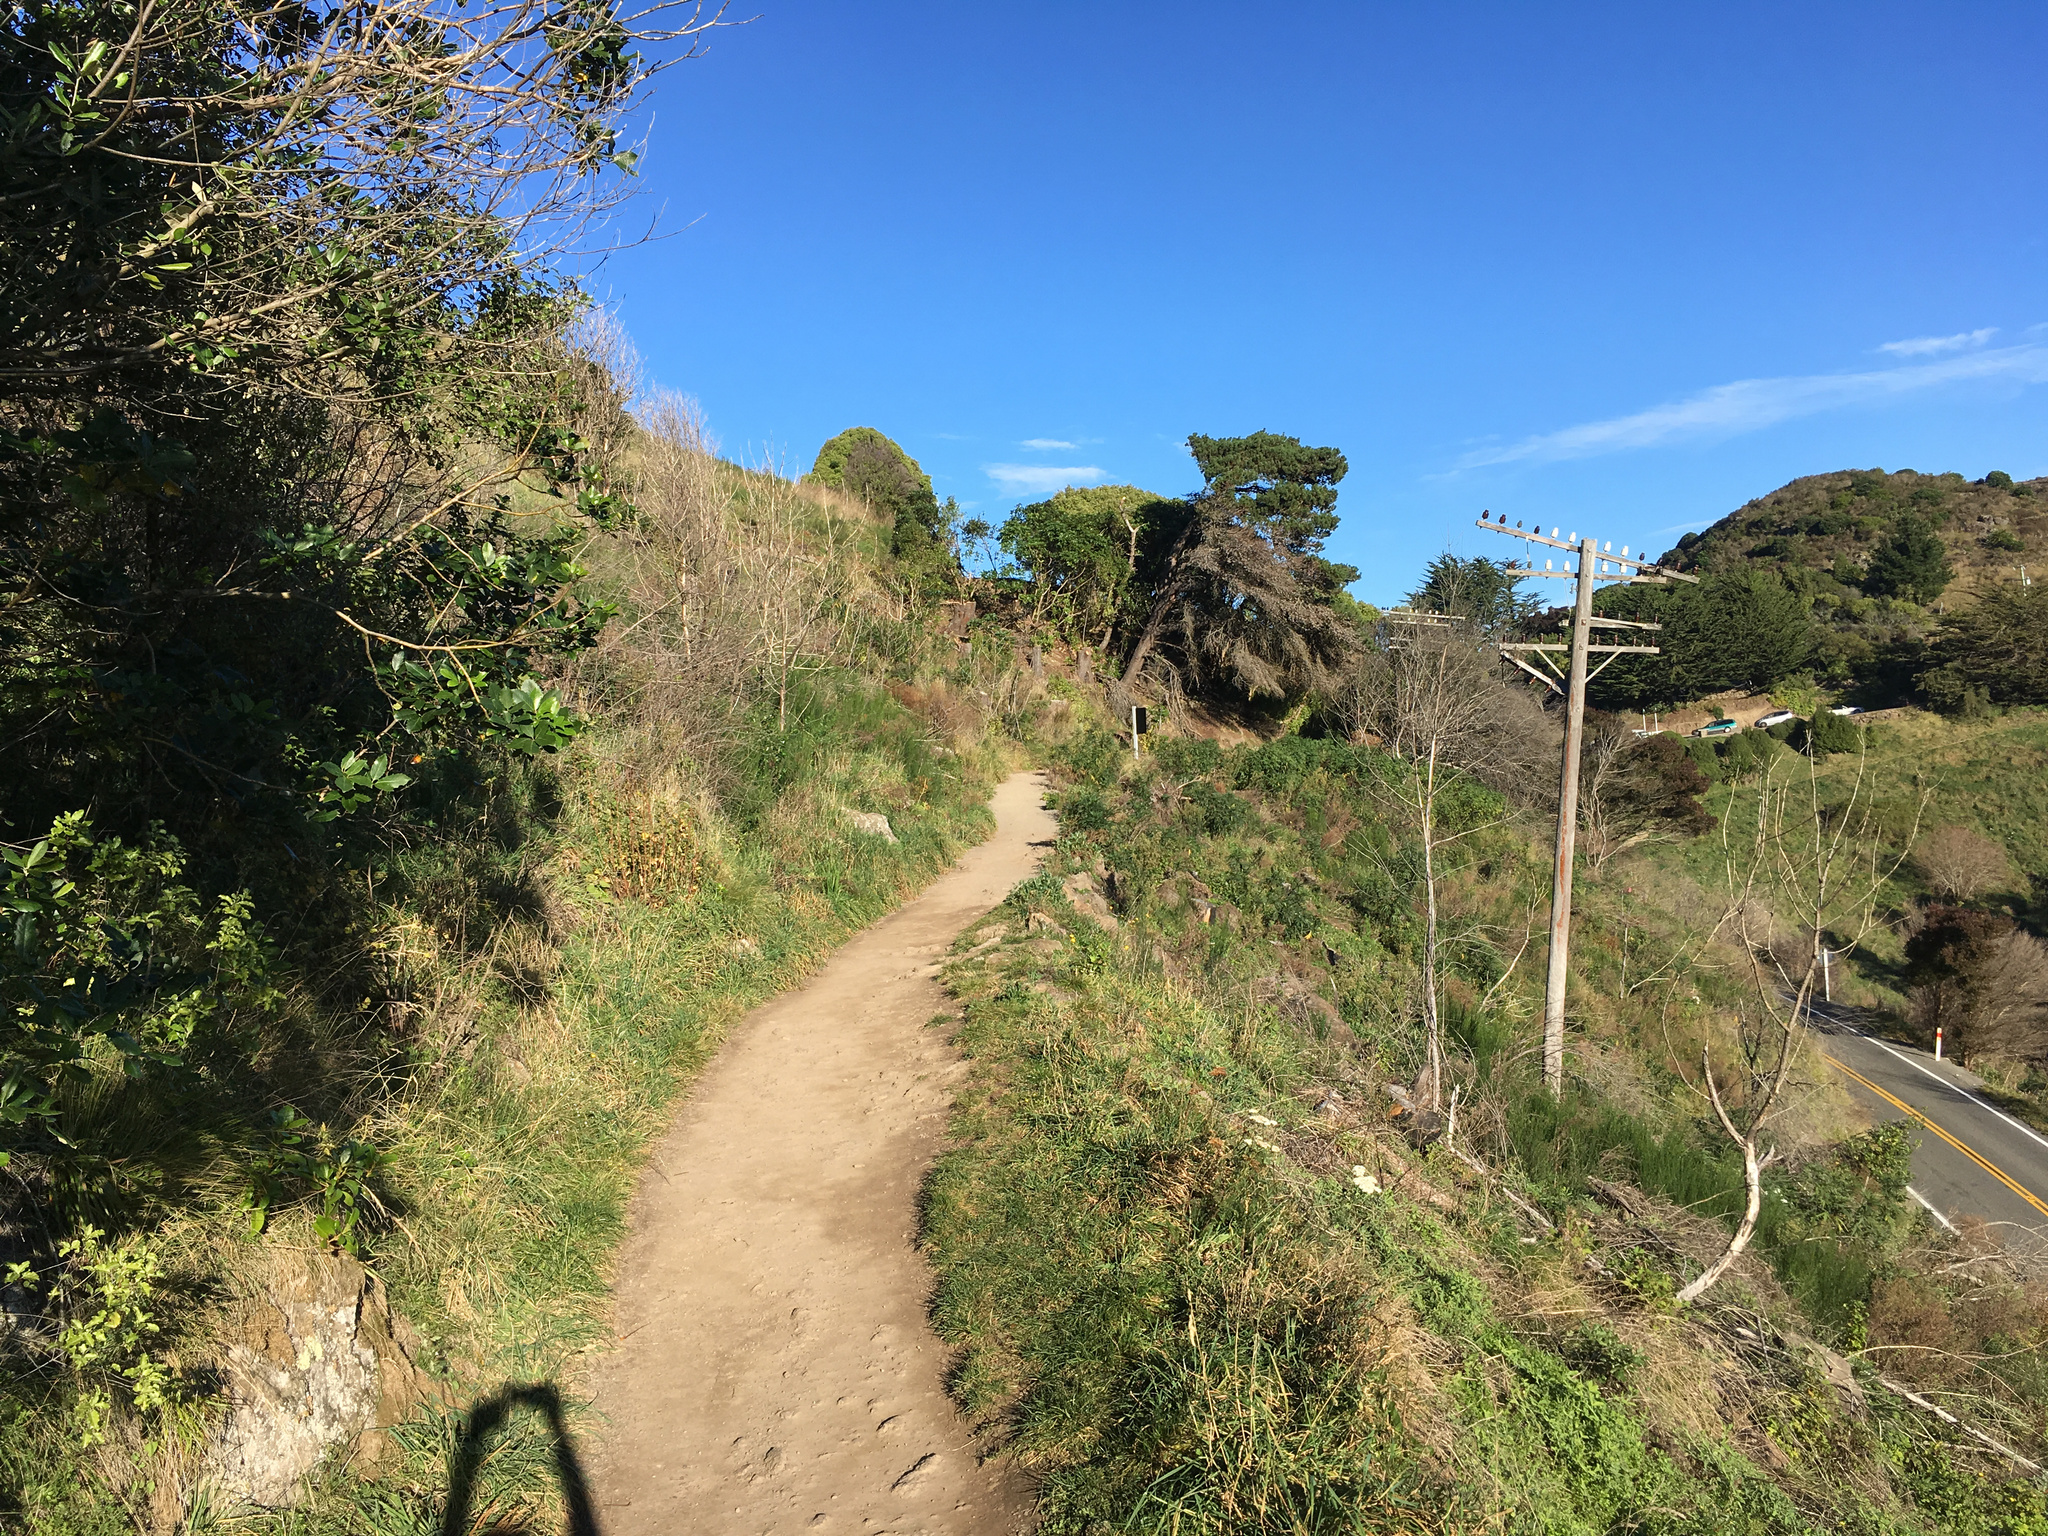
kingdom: Plantae
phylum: Tracheophyta
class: Magnoliopsida
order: Apiales
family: Araliaceae
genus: Neopanax
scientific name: Neopanax arboreus
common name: Five-fingers
